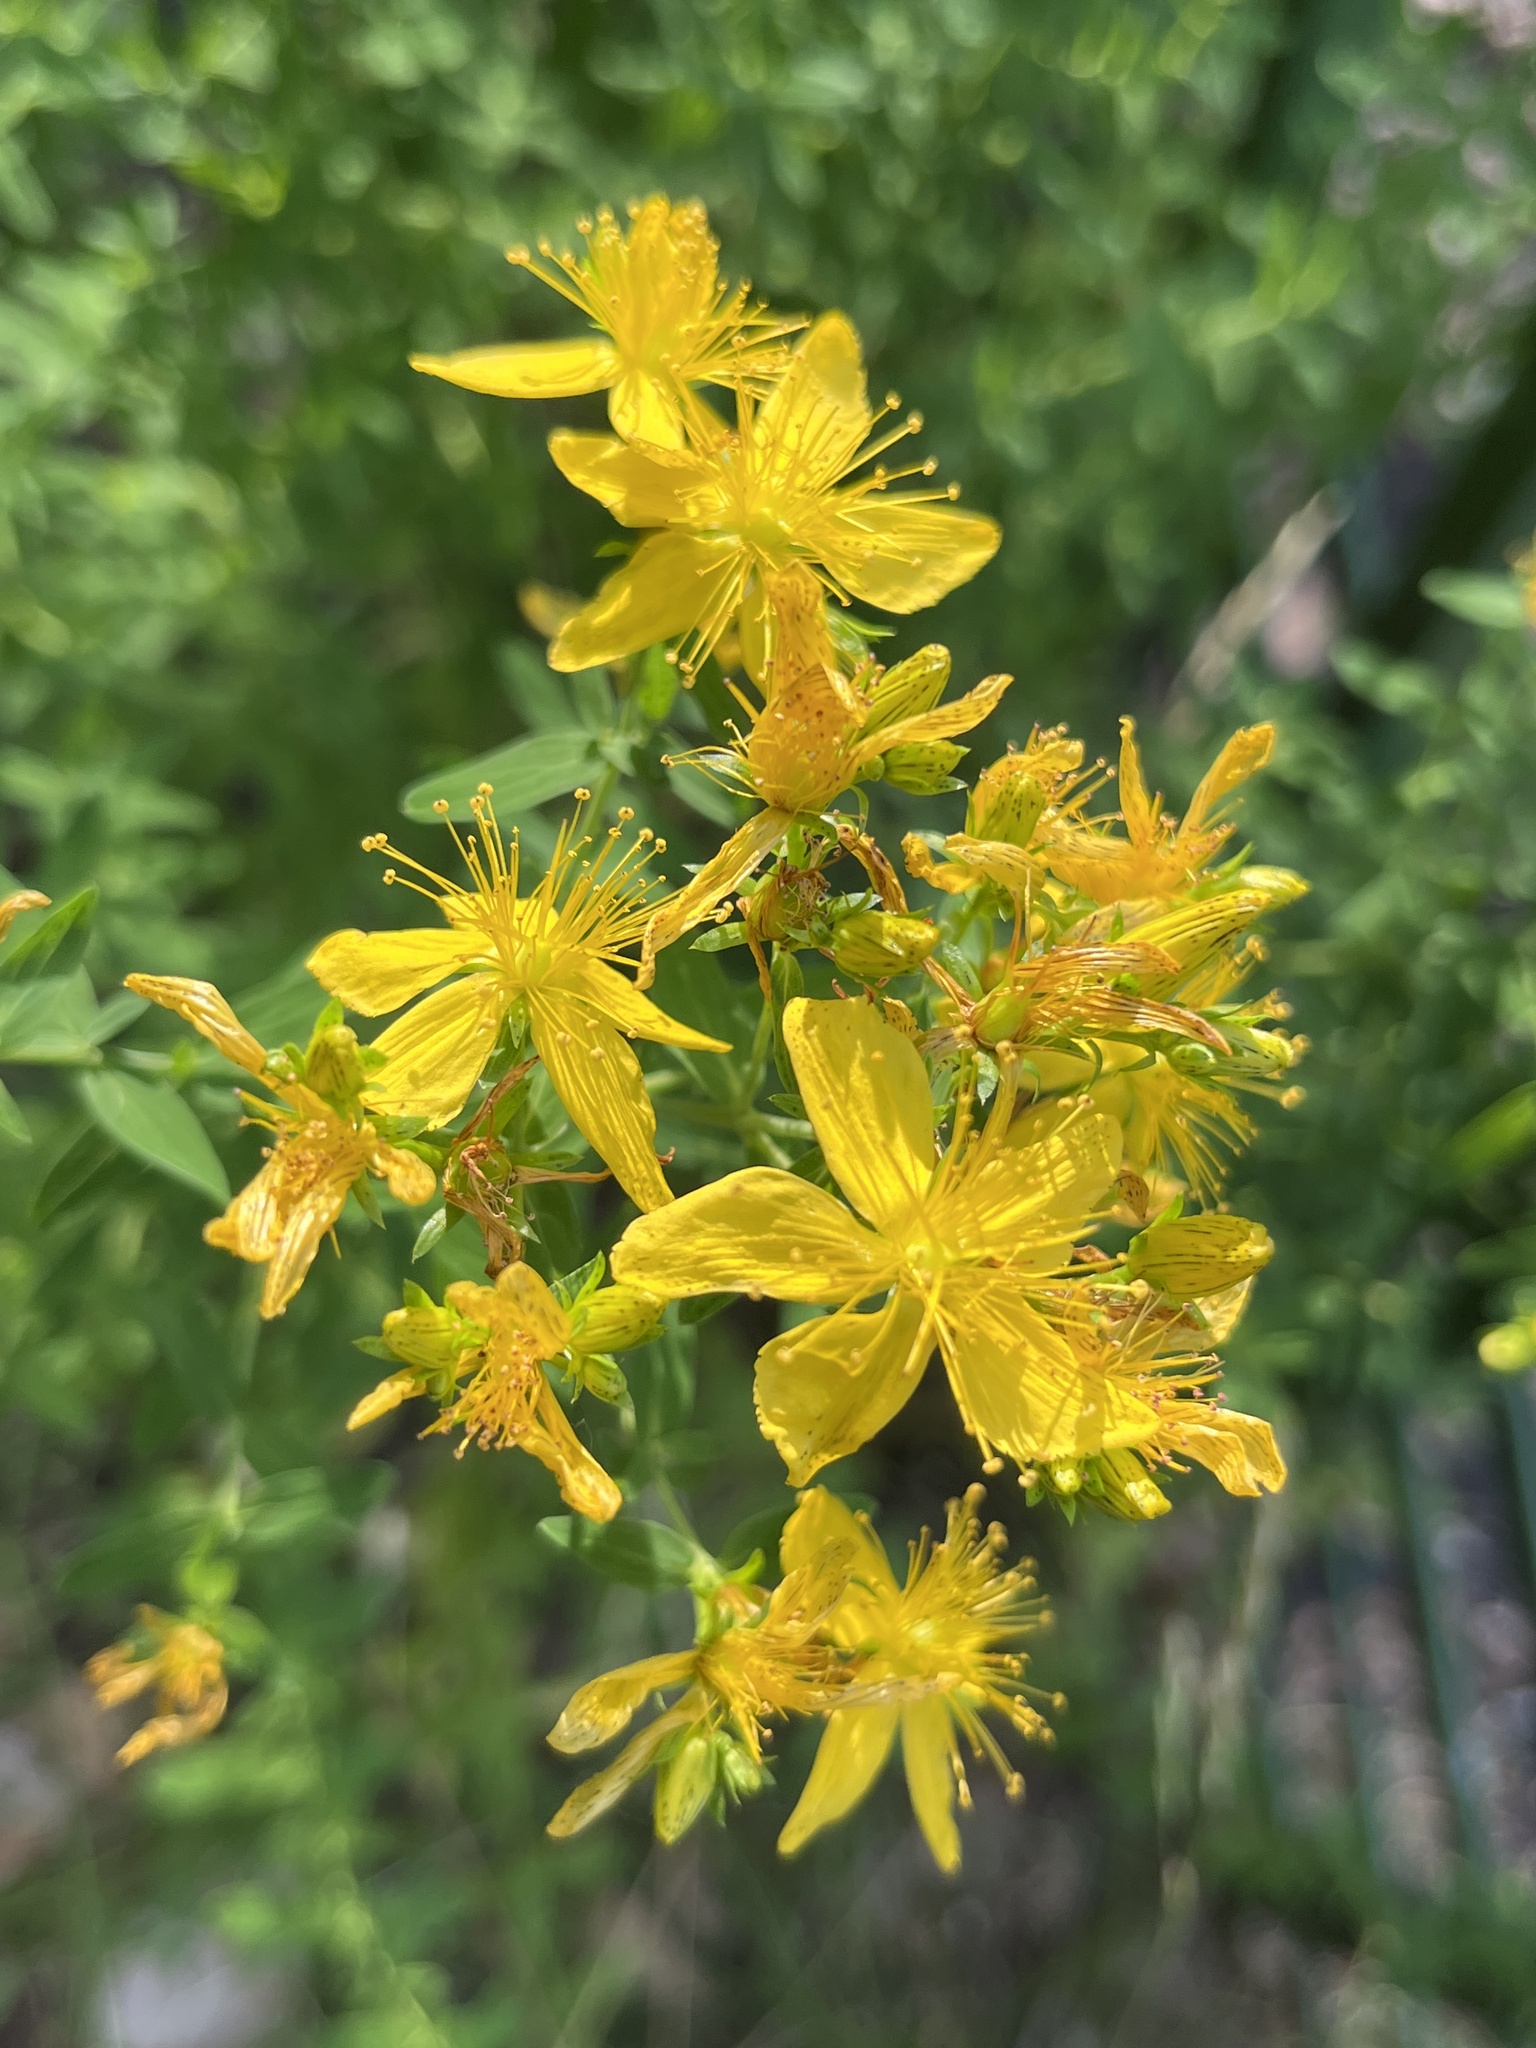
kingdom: Plantae
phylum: Tracheophyta
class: Magnoliopsida
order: Malpighiales
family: Hypericaceae
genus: Hypericum
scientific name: Hypericum perforatum
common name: Common st. johnswort
